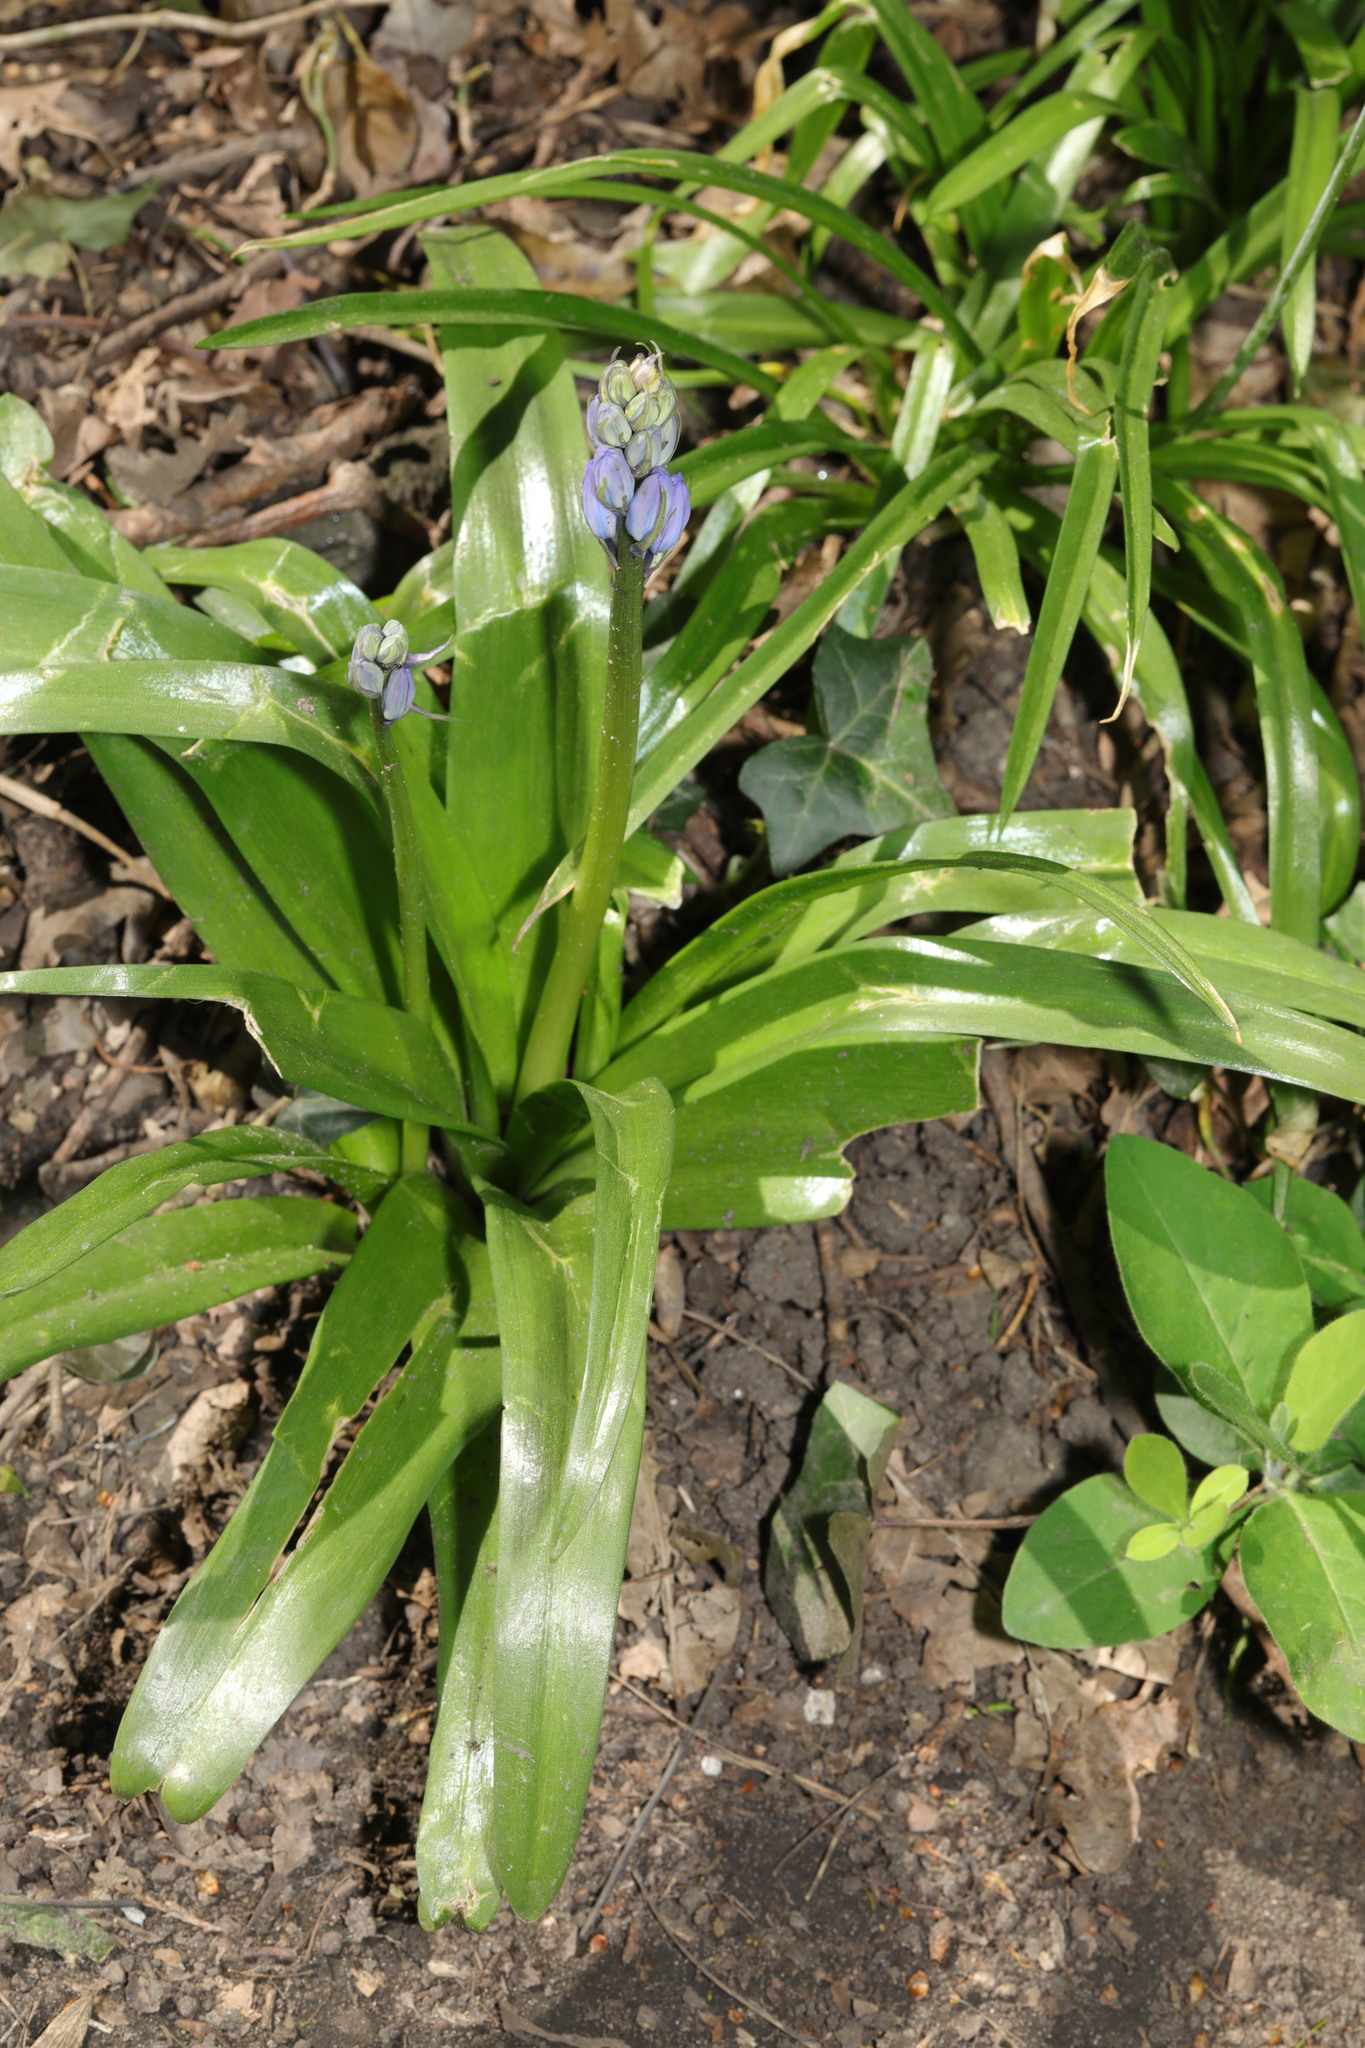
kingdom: Plantae
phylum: Tracheophyta
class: Liliopsida
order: Asparagales
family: Asparagaceae
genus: Hyacinthoides
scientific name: Hyacinthoides hispanica
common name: Spanish bluebell
